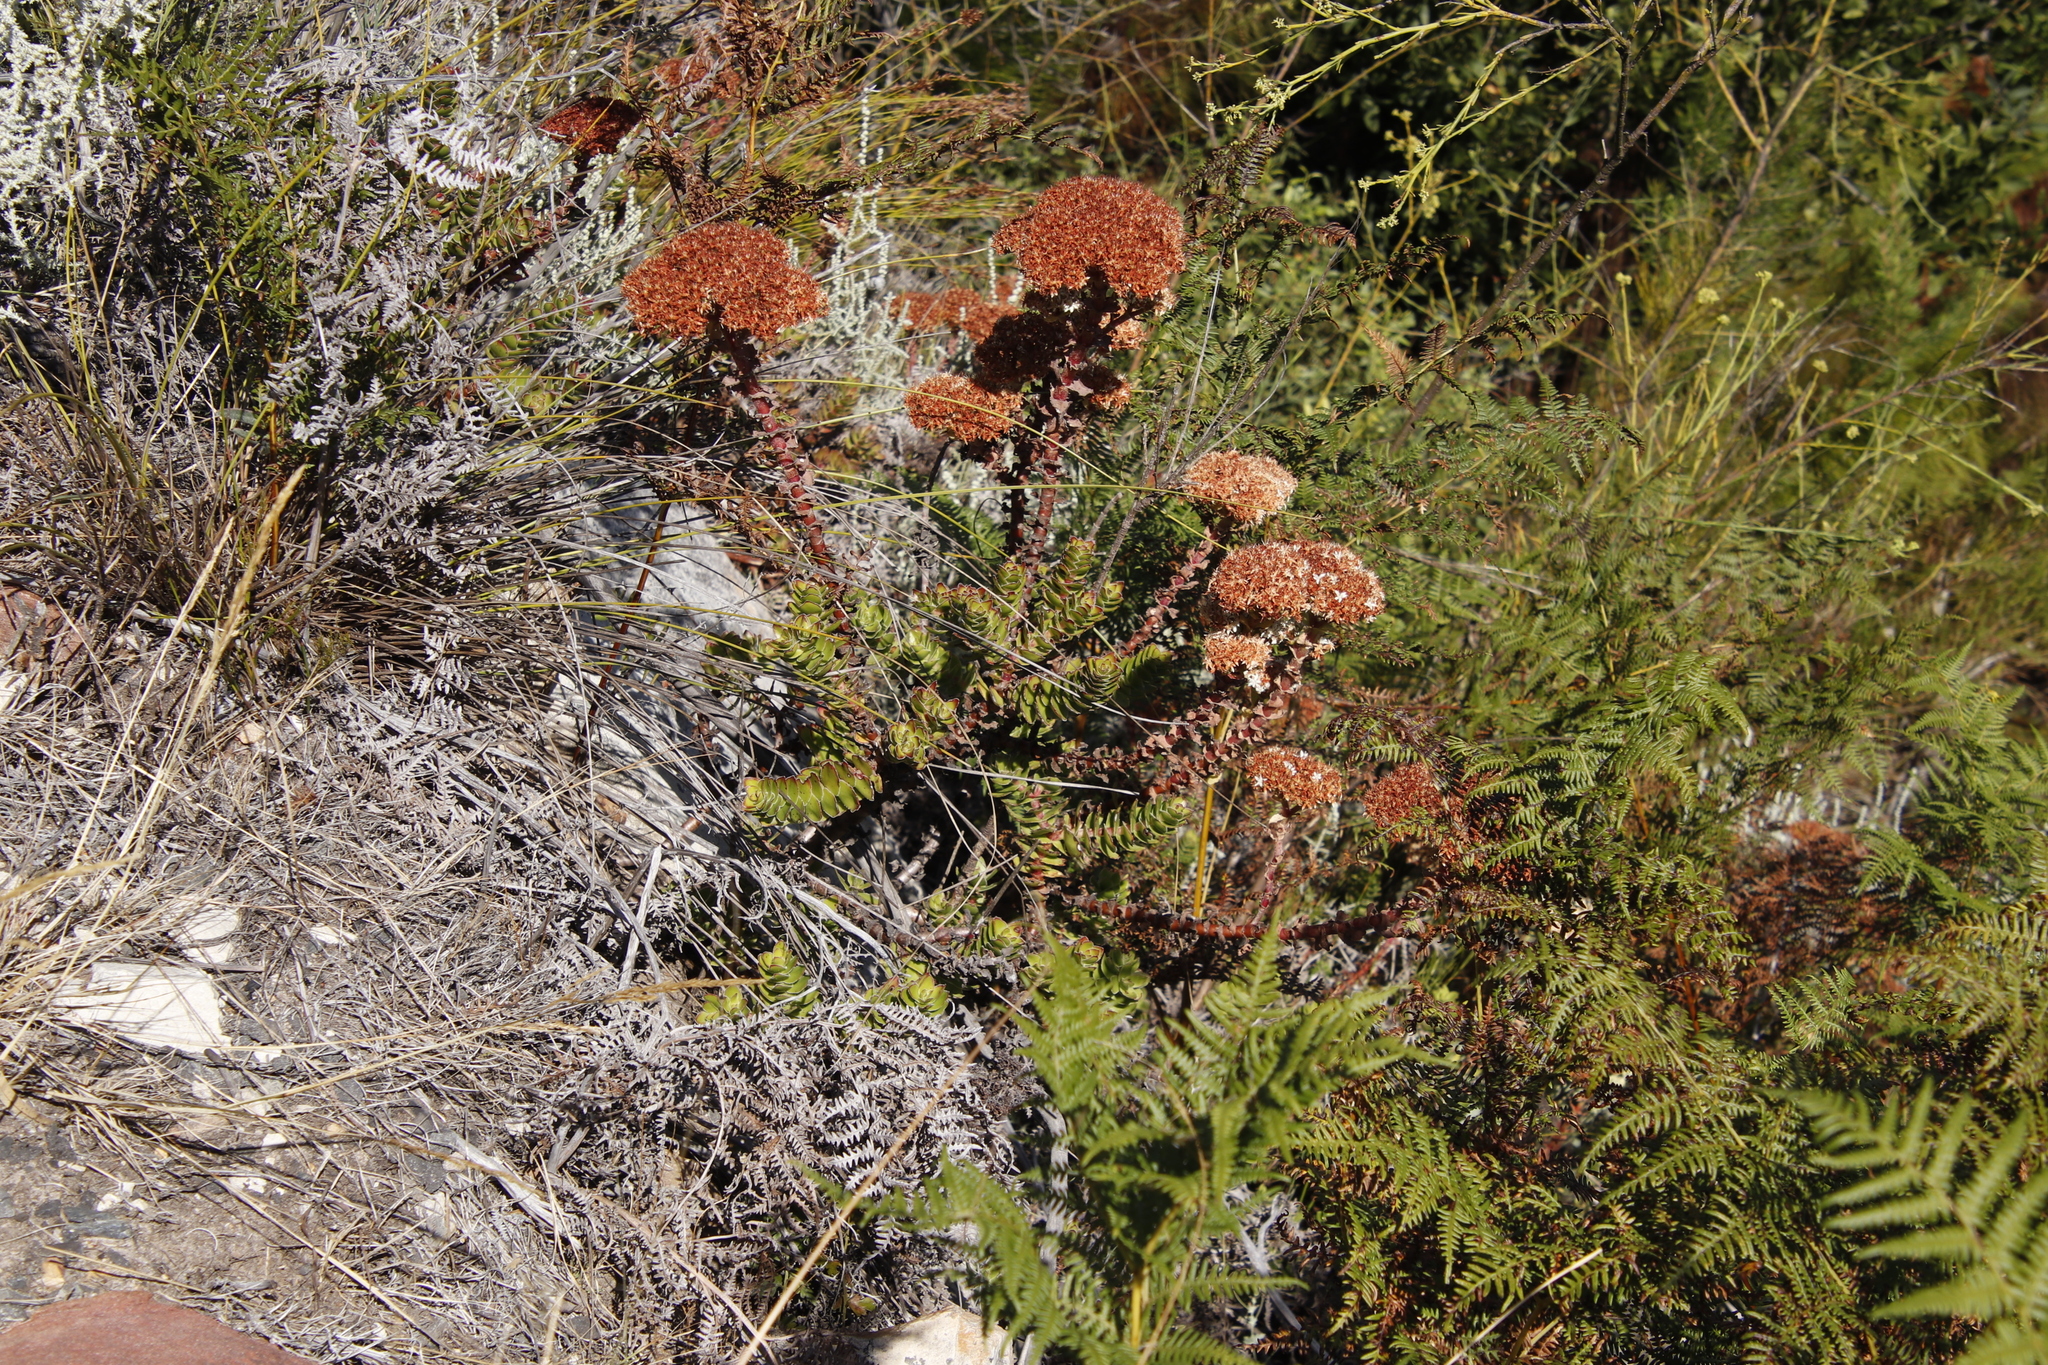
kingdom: Plantae
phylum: Tracheophyta
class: Magnoliopsida
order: Saxifragales
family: Crassulaceae
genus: Crassula
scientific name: Crassula undulata
